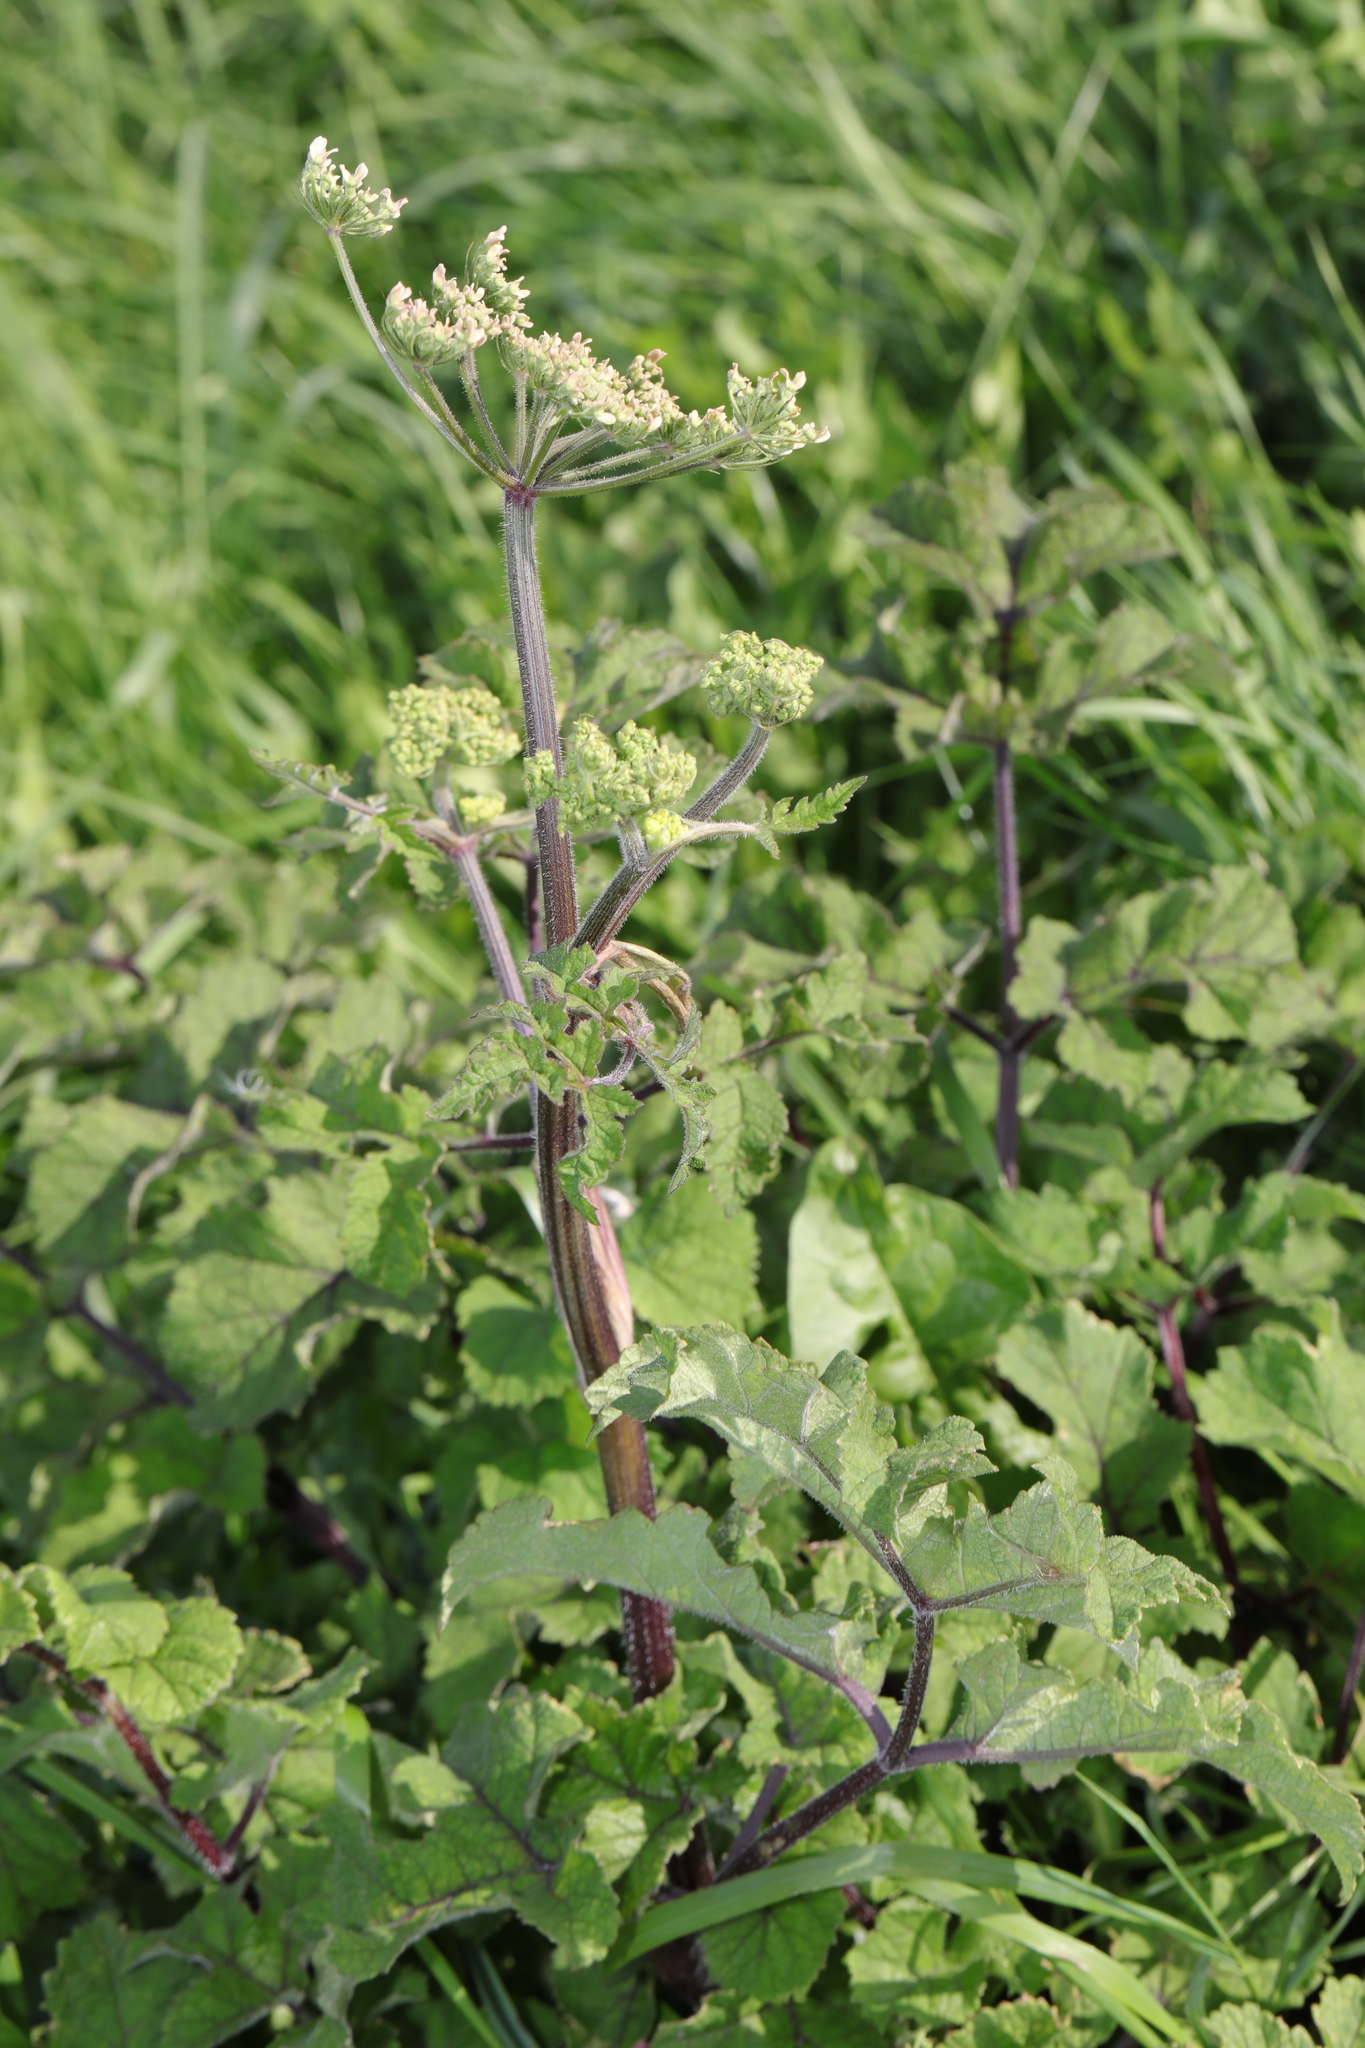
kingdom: Plantae
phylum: Tracheophyta
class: Magnoliopsida
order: Apiales
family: Apiaceae
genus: Heracleum
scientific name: Heracleum sphondylium
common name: Hogweed
